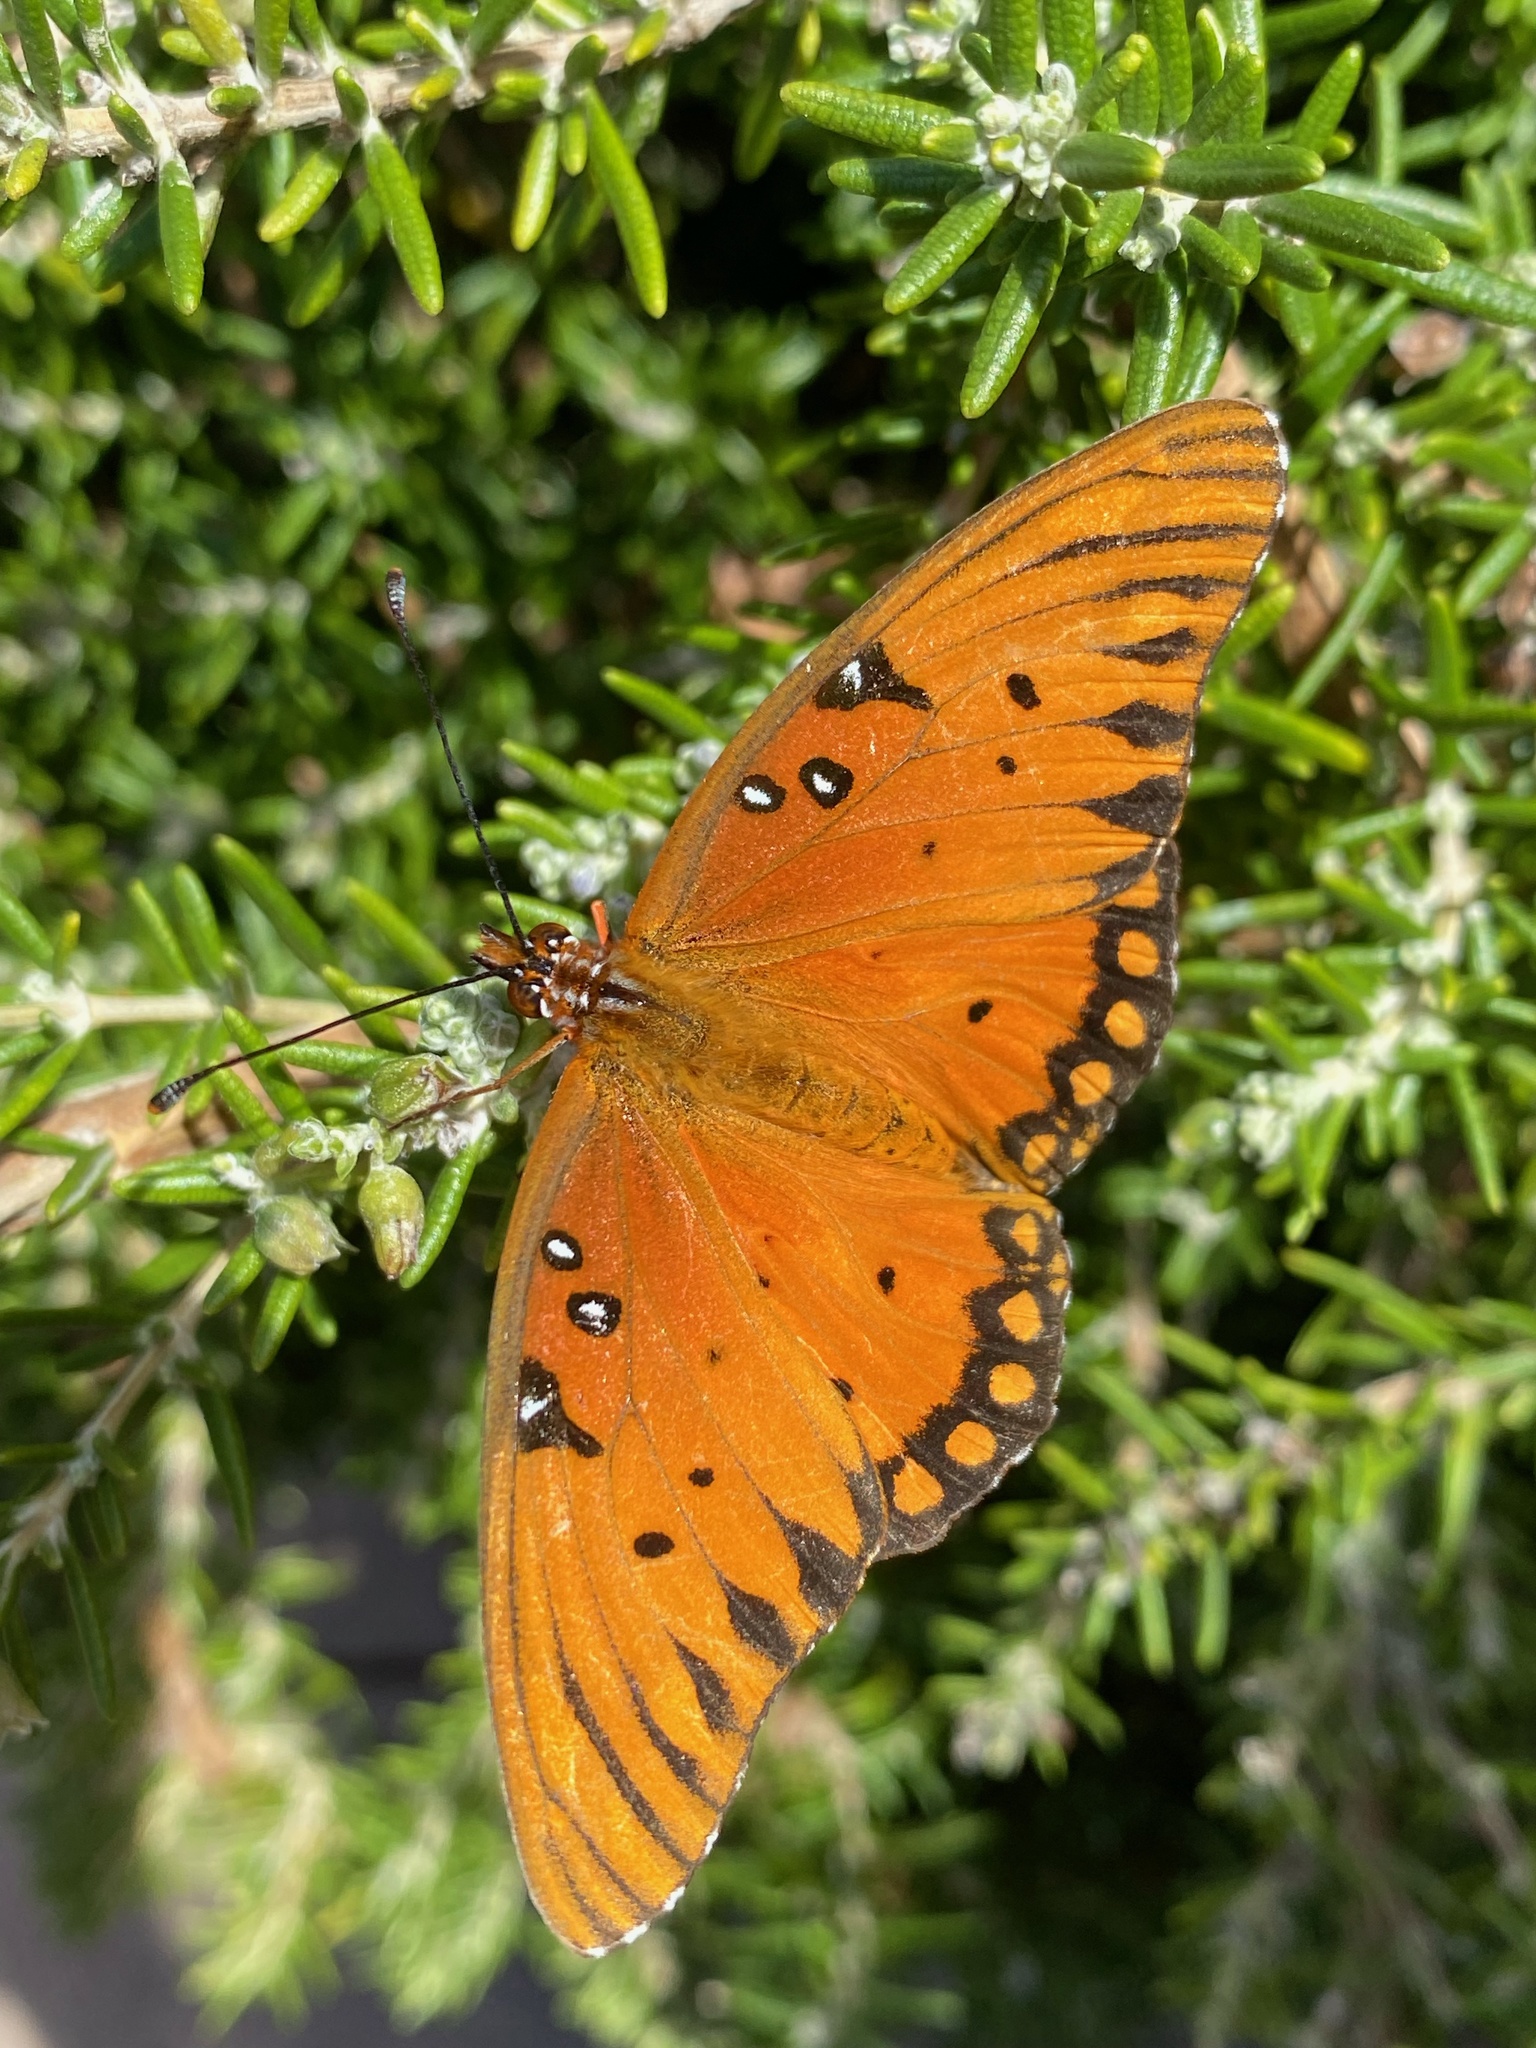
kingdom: Animalia
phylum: Arthropoda
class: Insecta
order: Lepidoptera
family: Nymphalidae
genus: Dione
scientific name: Dione vanillae
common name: Gulf fritillary
